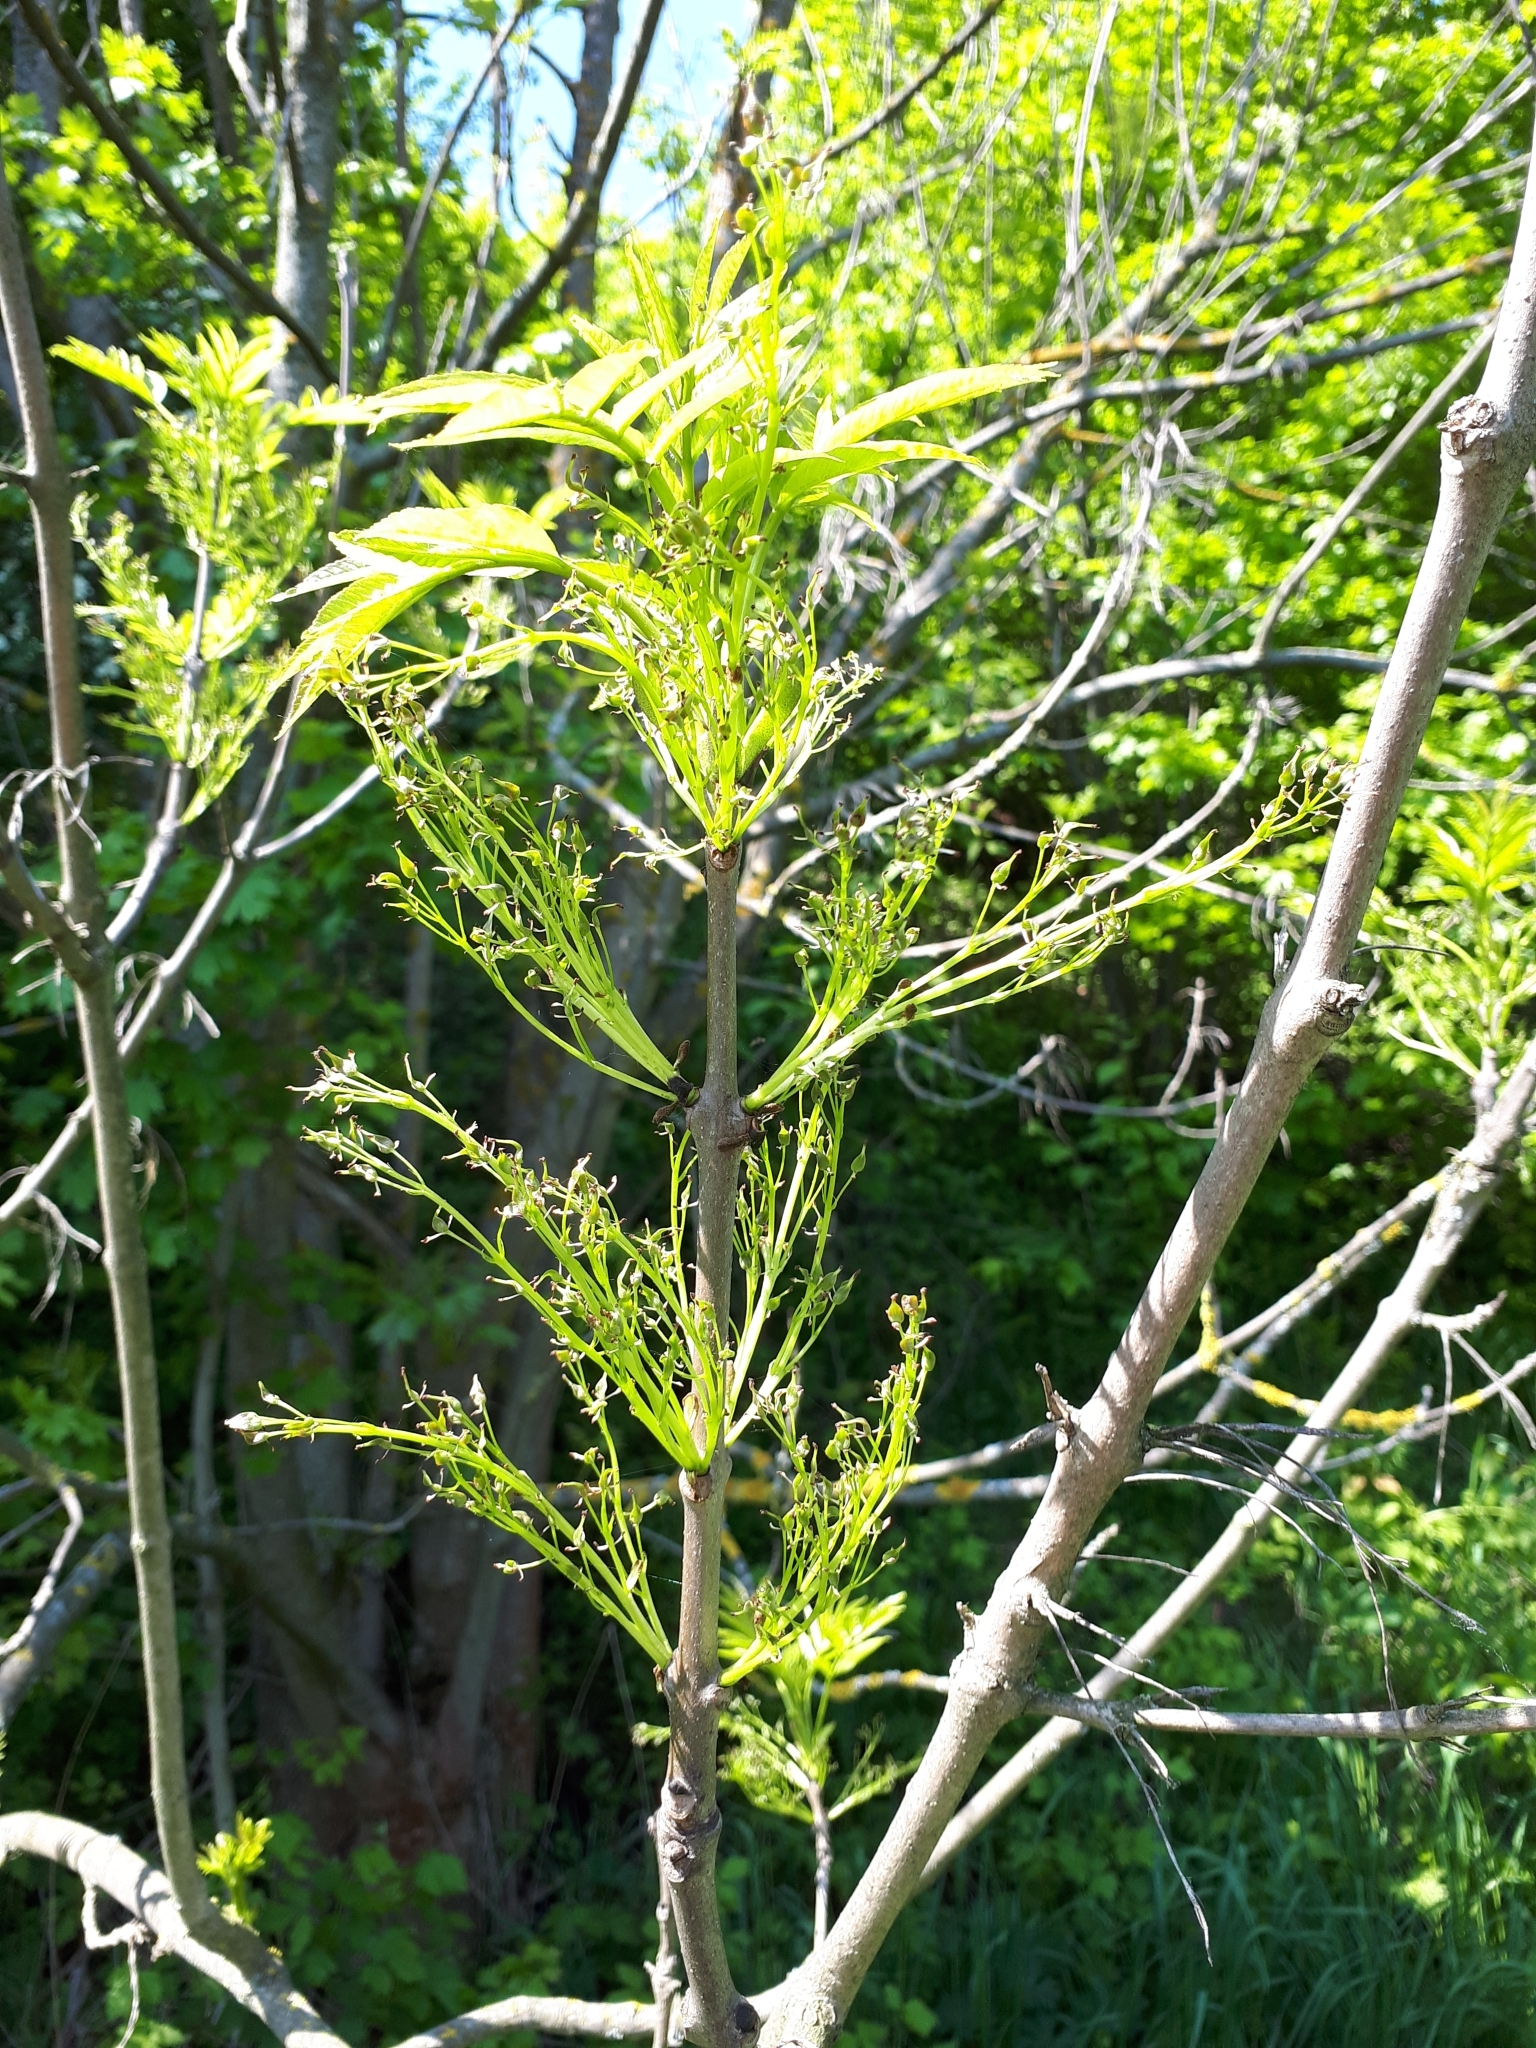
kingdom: Plantae
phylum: Tracheophyta
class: Magnoliopsida
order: Lamiales
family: Oleaceae
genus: Fraxinus
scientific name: Fraxinus pennsylvanica
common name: Green ash
